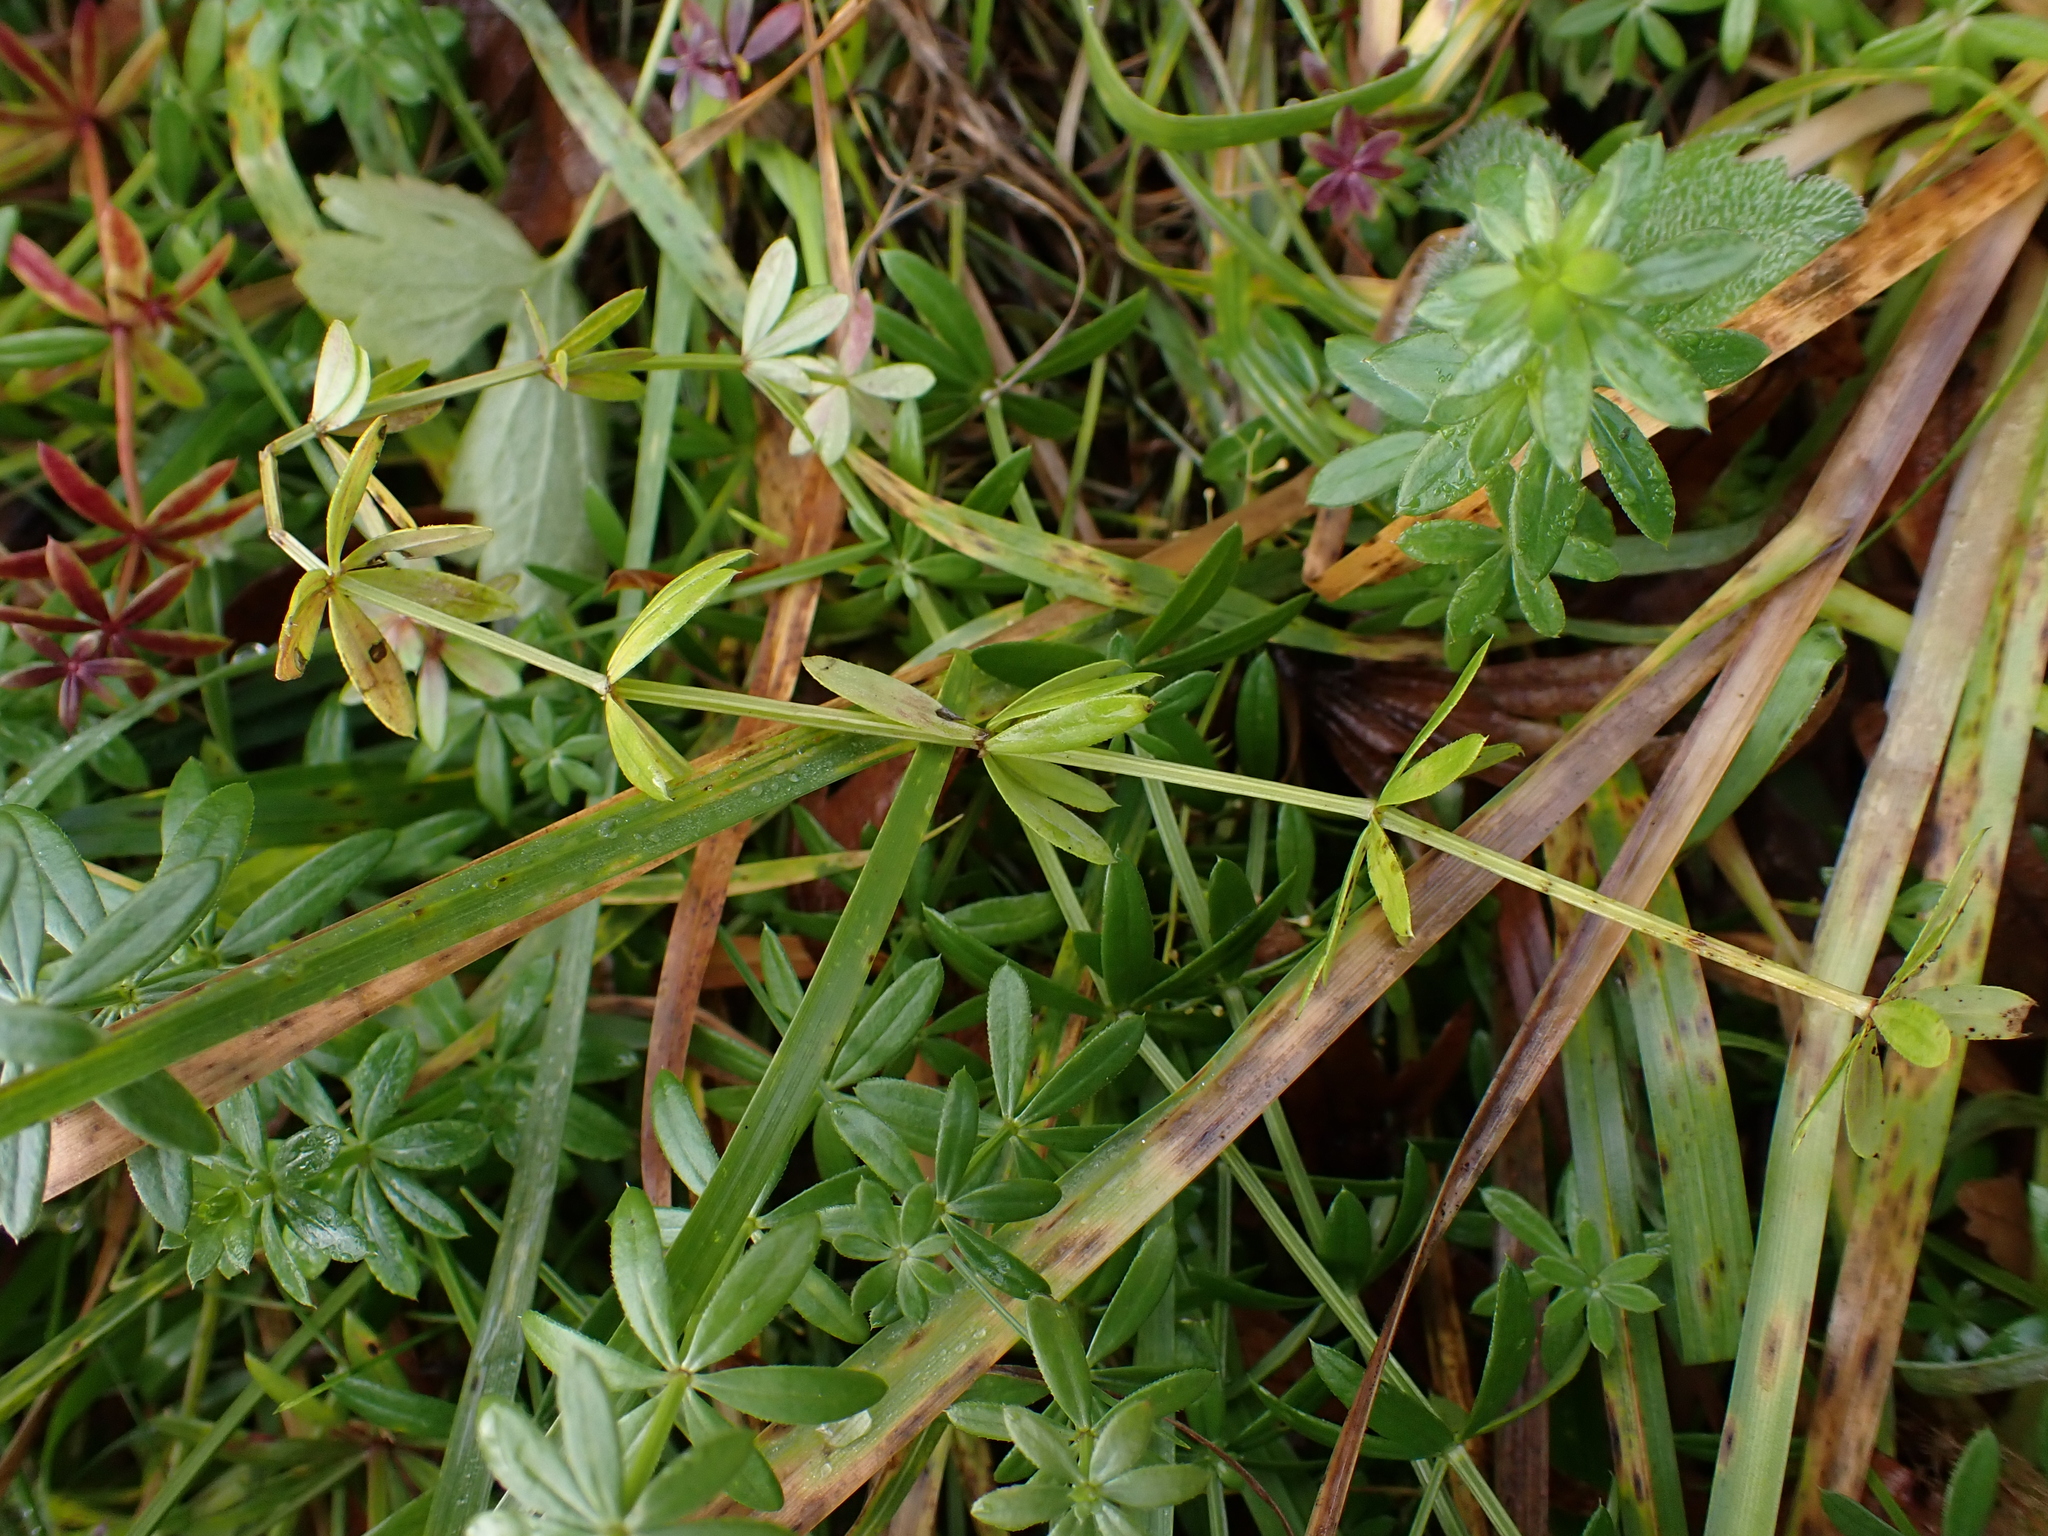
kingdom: Fungi
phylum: Basidiomycota
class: Pucciniomycetes
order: Pucciniales
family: Pucciniaceae
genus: Puccinia
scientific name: Puccinia punctata
